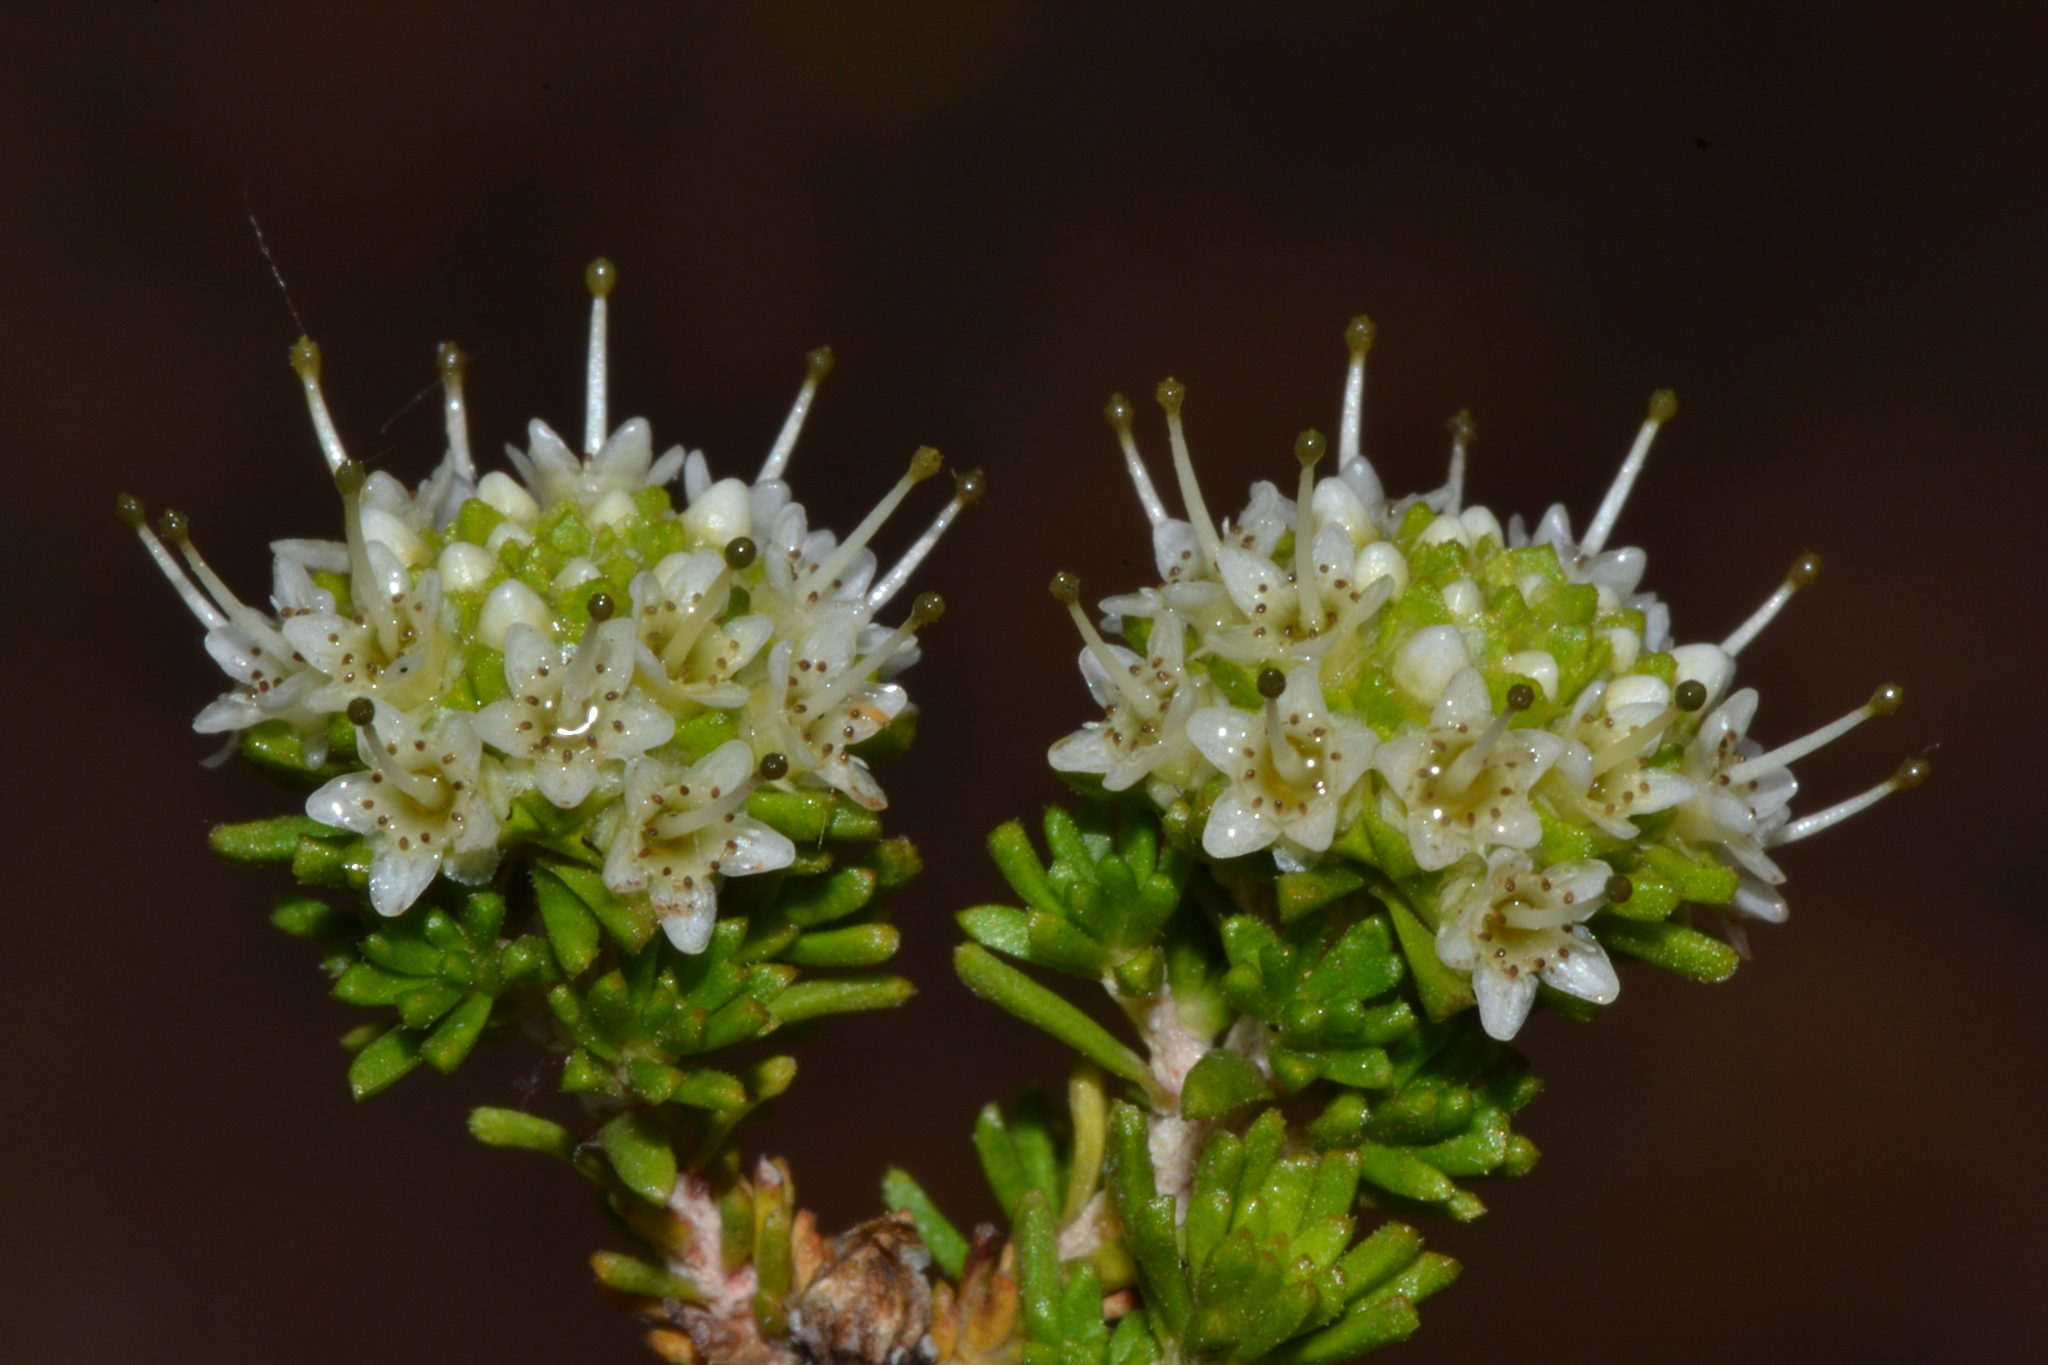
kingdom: Plantae
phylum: Tracheophyta
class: Magnoliopsida
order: Myrtales
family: Myrtaceae
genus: Darwinia
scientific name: Darwinia sphaerica
